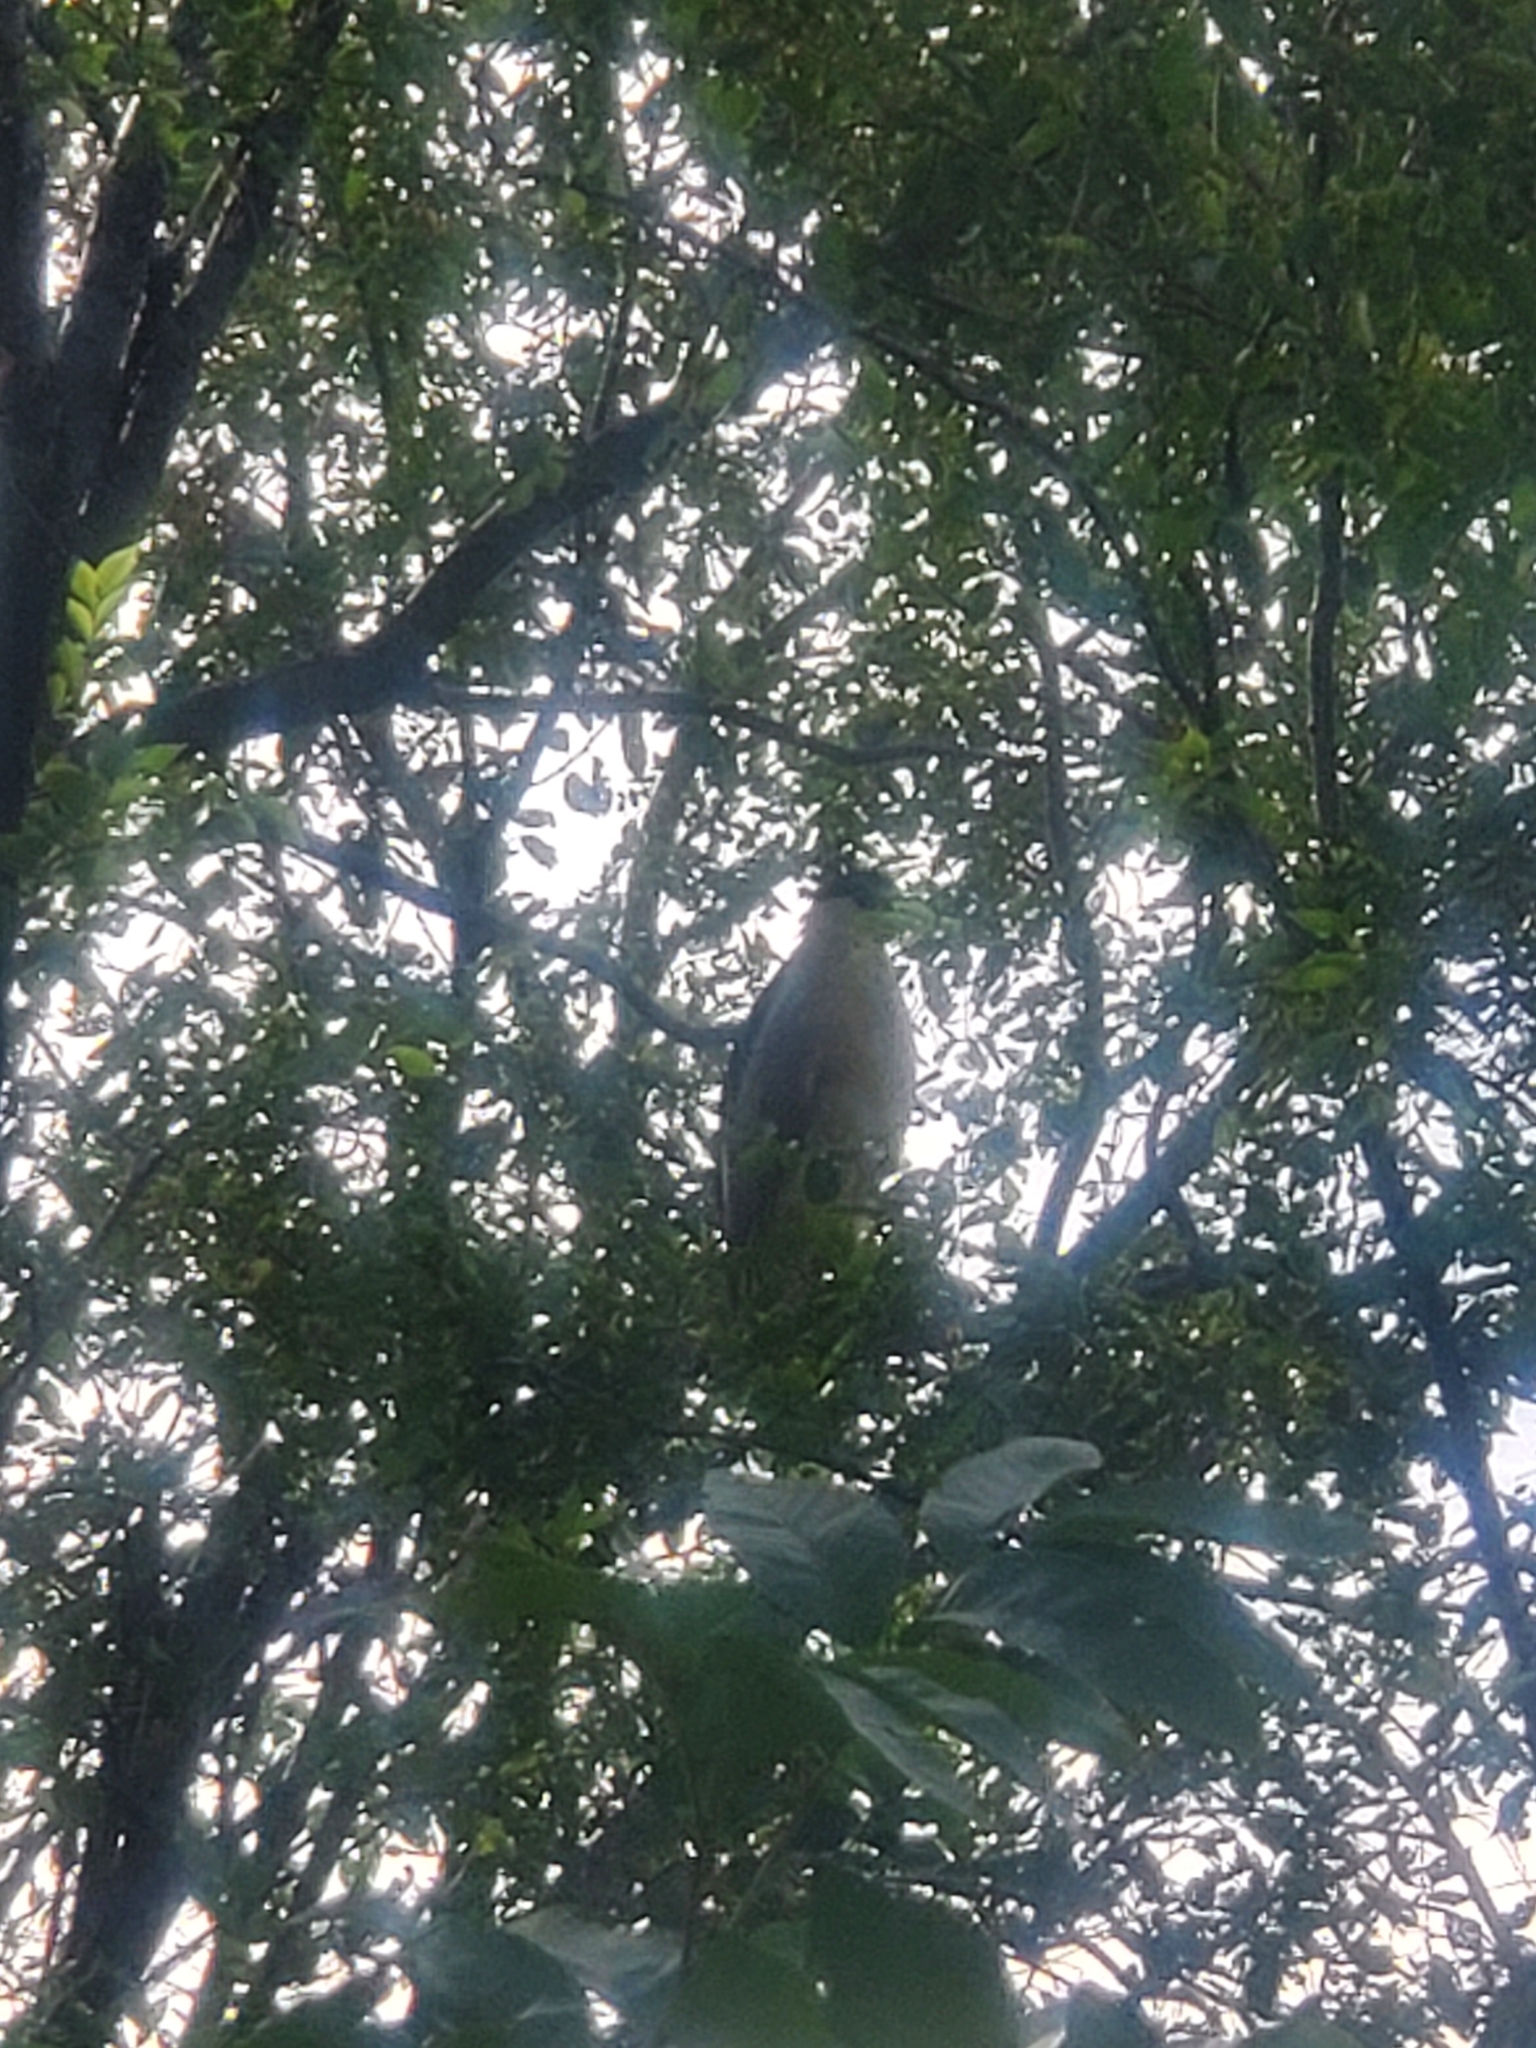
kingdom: Animalia
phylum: Chordata
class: Aves
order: Pelecaniformes
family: Ardeidae
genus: Nycticorax
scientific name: Nycticorax nycticorax
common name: Black-crowned night heron
